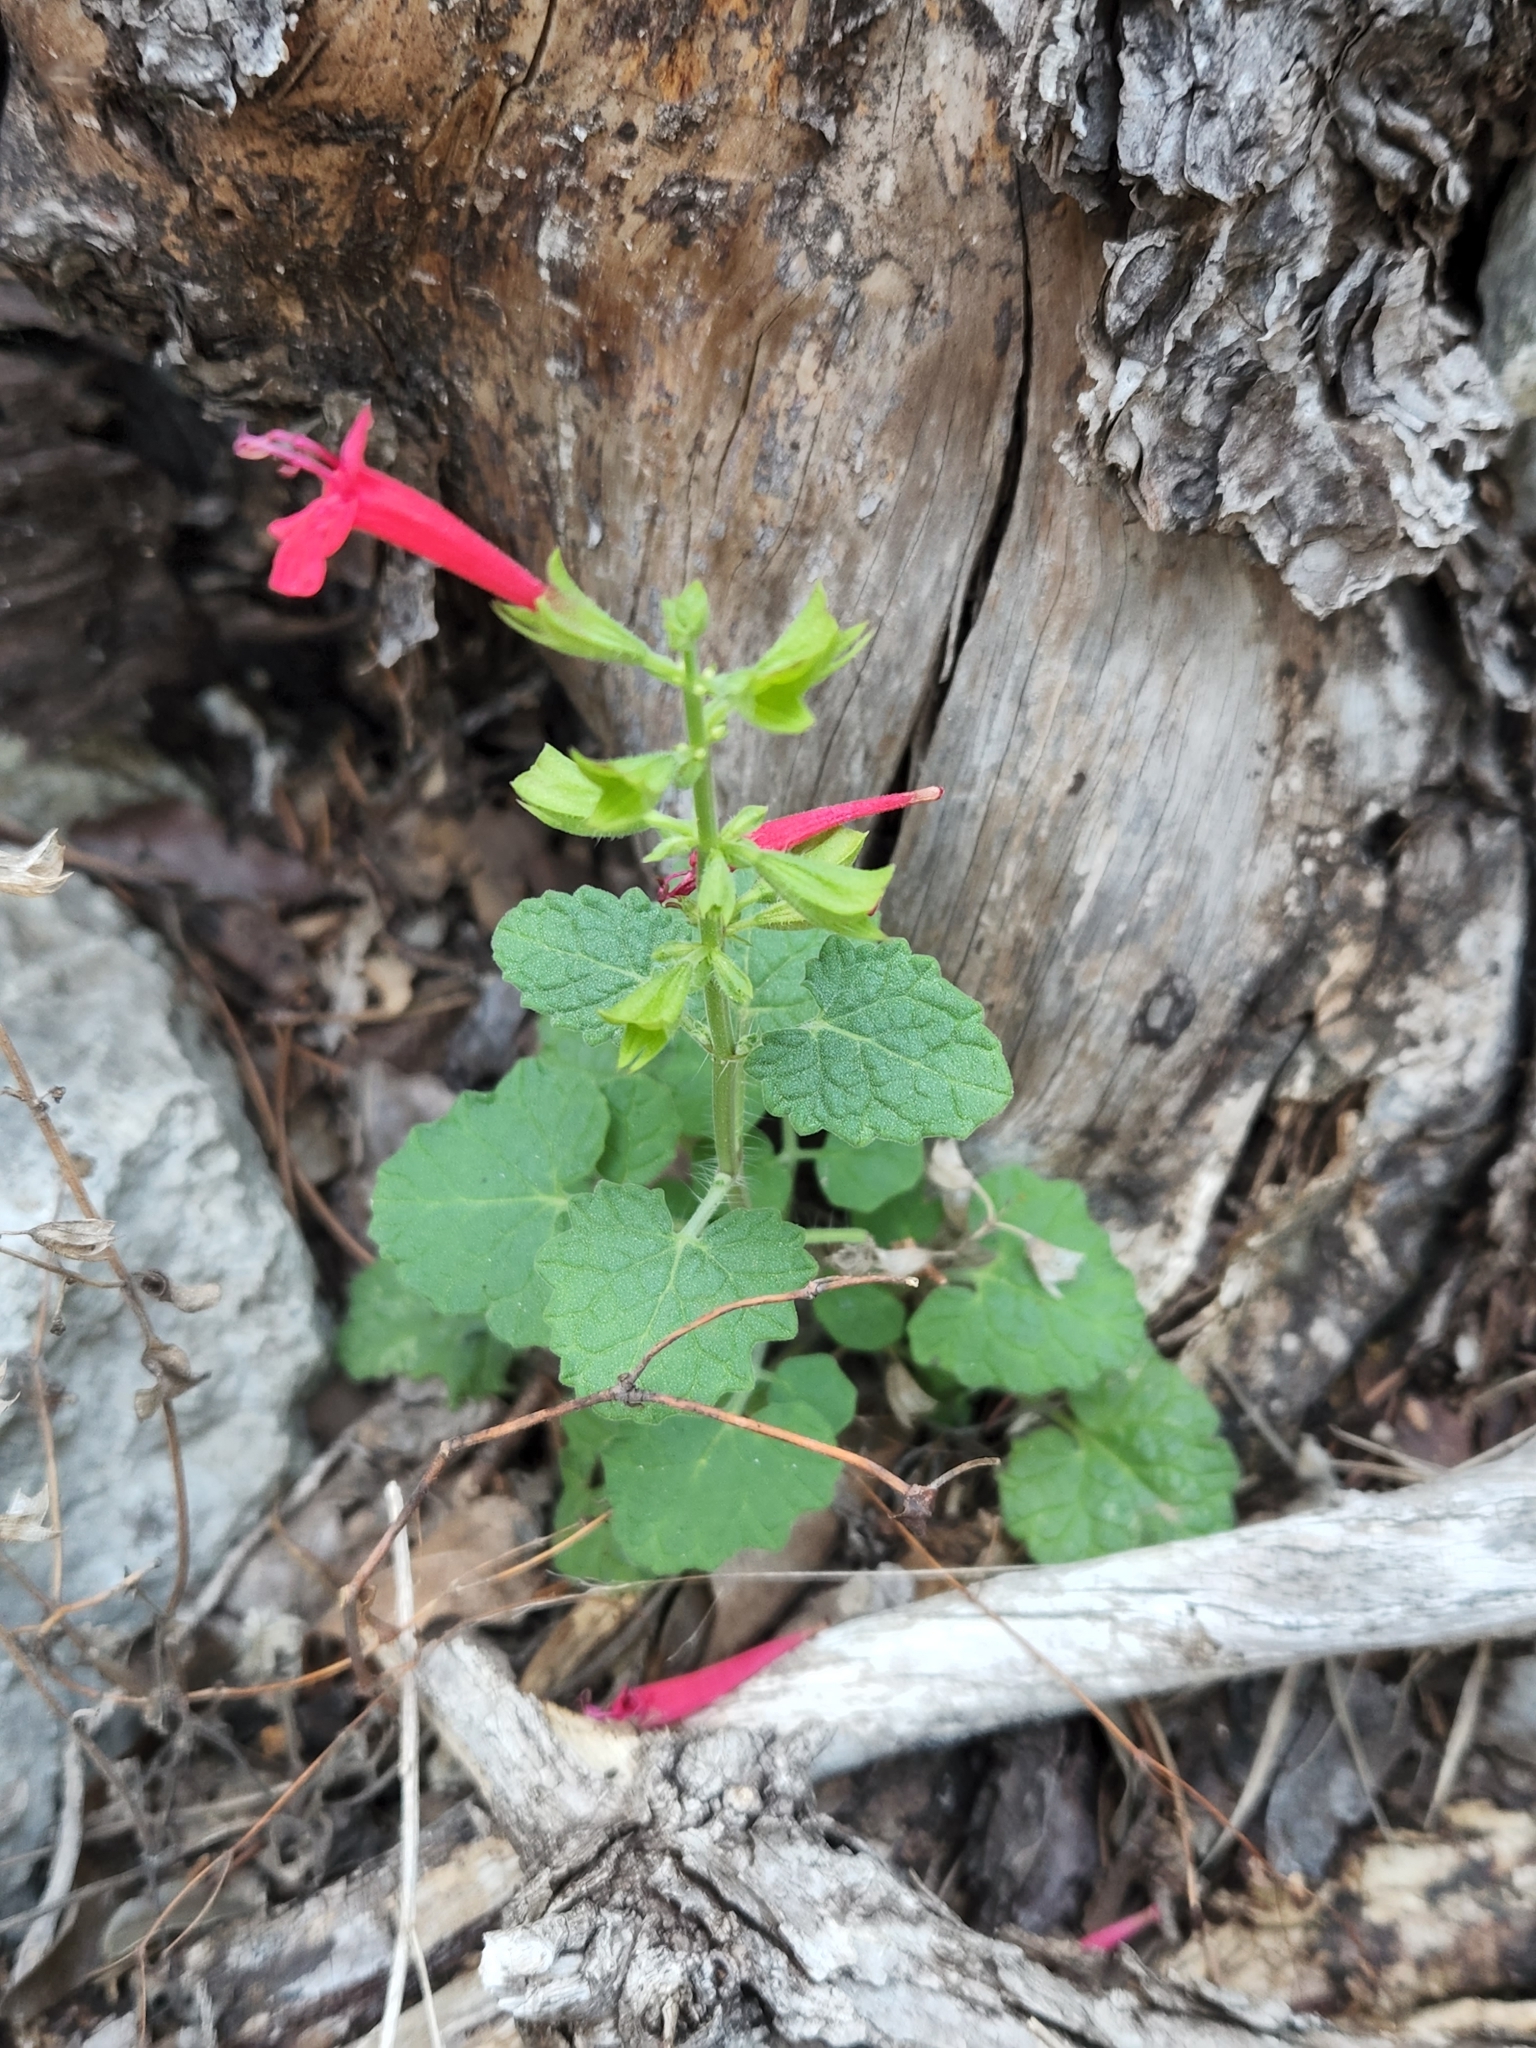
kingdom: Plantae
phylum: Tracheophyta
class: Magnoliopsida
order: Lamiales
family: Lamiaceae
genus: Salvia
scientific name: Salvia roemeriana
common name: Cedar sage
